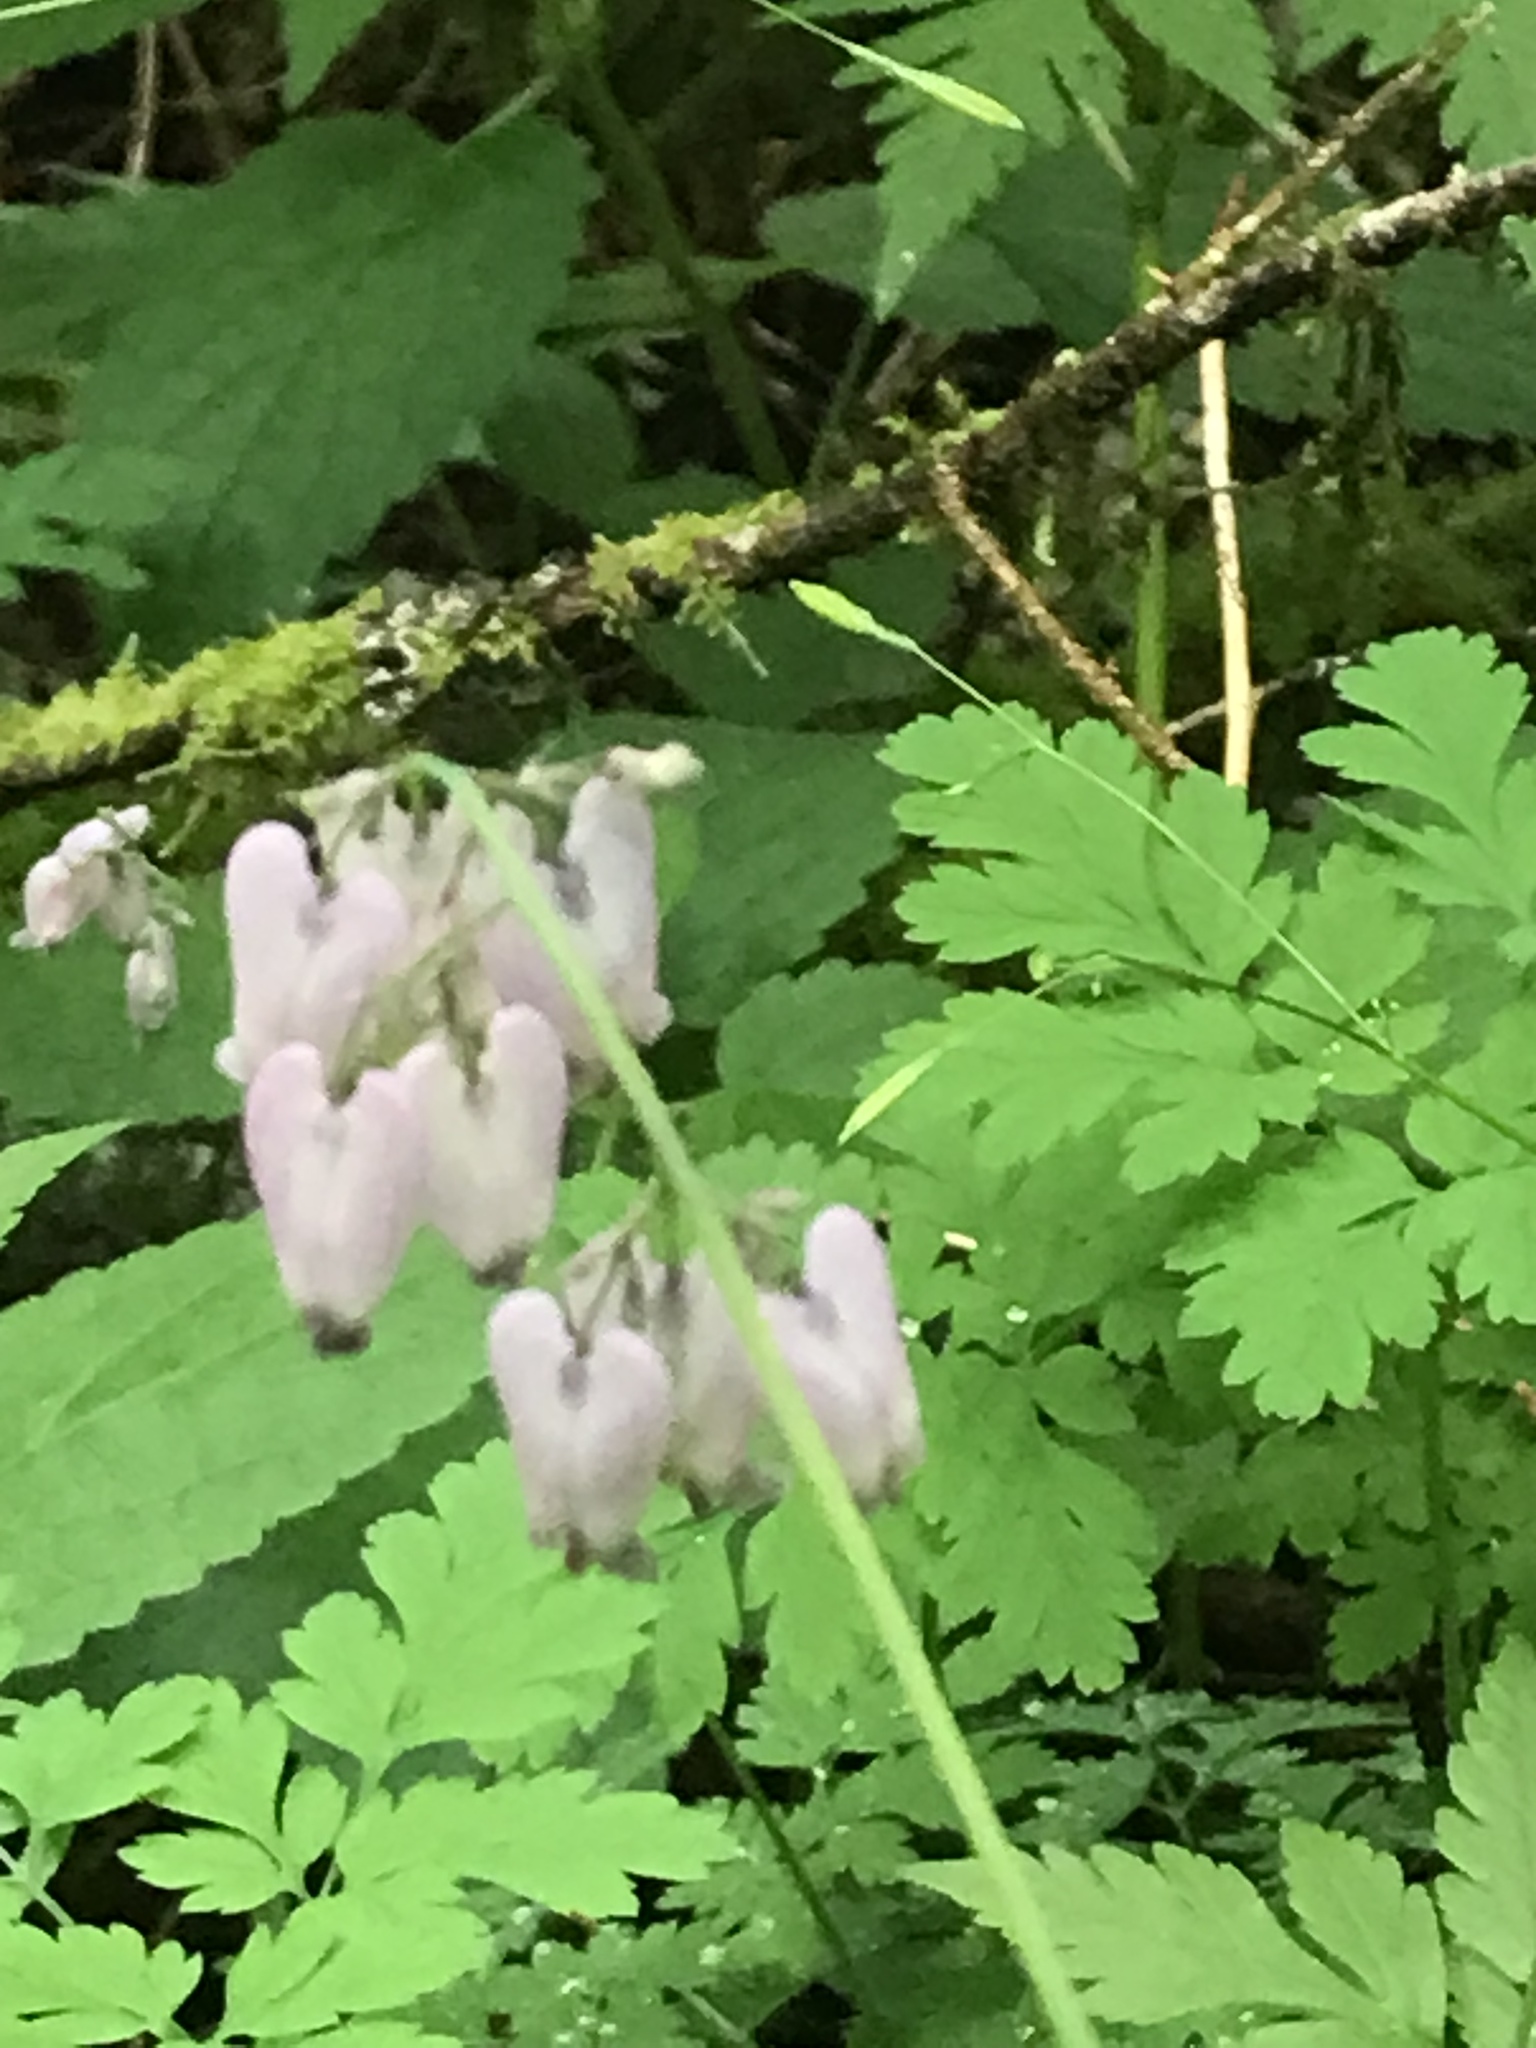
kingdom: Plantae
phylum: Tracheophyta
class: Magnoliopsida
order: Ranunculales
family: Papaveraceae
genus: Dicentra
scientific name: Dicentra formosa
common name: Bleeding-heart
